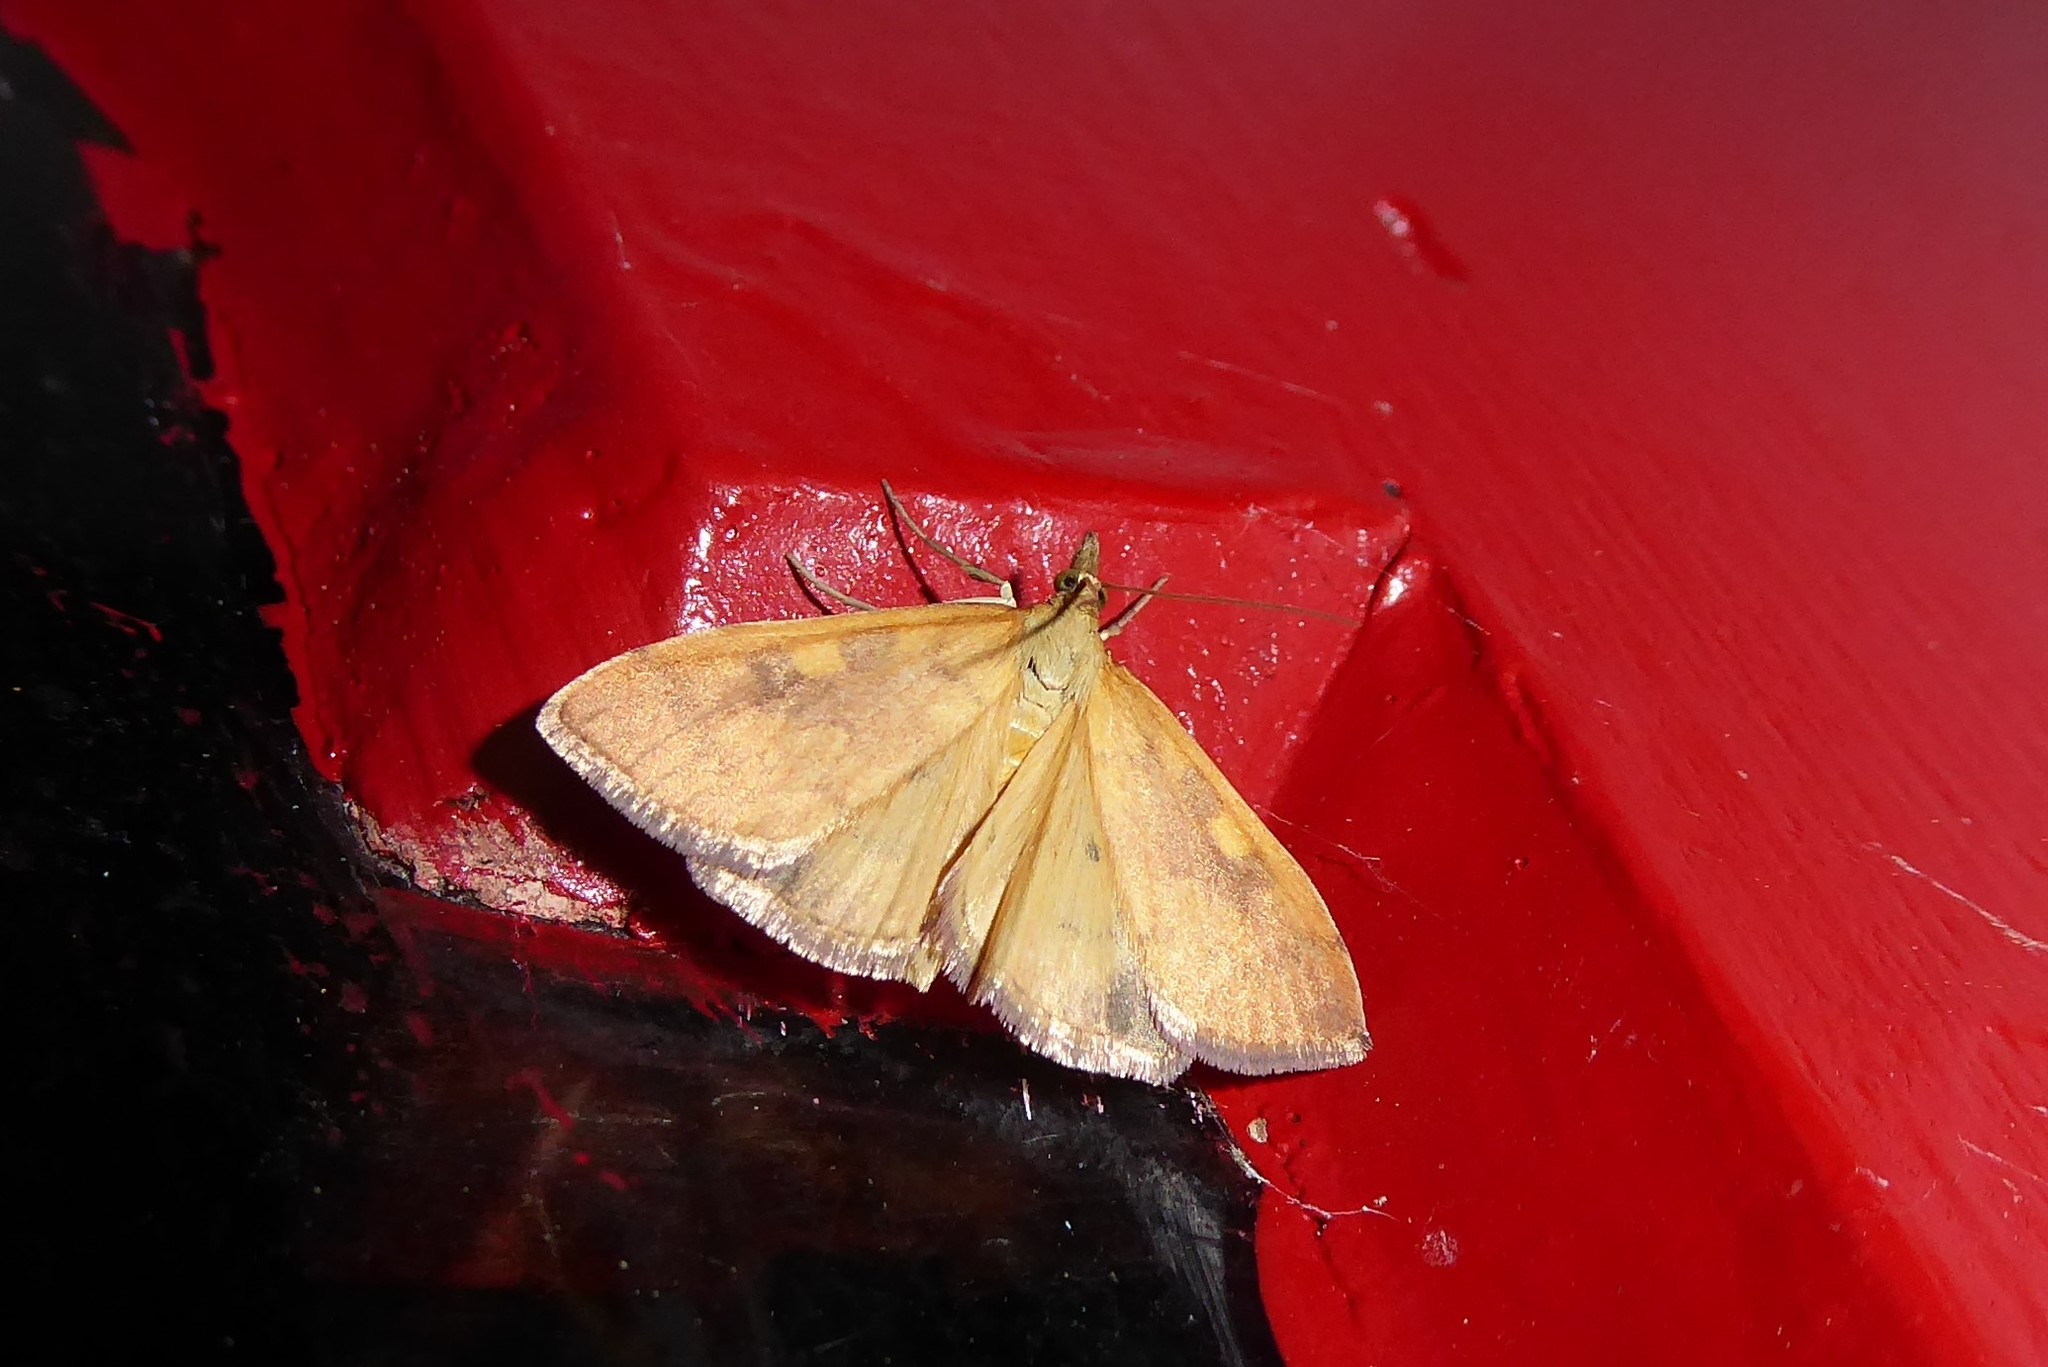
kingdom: Animalia
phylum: Arthropoda
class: Insecta
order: Lepidoptera
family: Crambidae
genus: Udea
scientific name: Udea Mnesictena flavidalis
